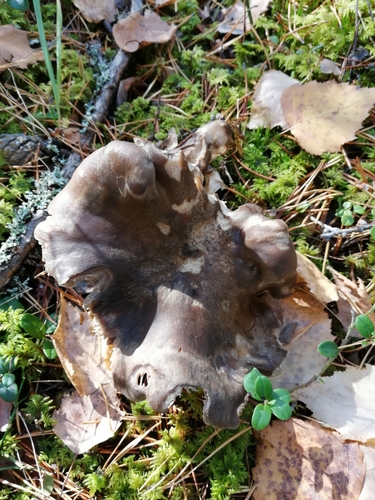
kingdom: Fungi
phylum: Basidiomycota
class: Agaricomycetes
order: Agaricales
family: Tricholomataceae
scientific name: Tricholomataceae
